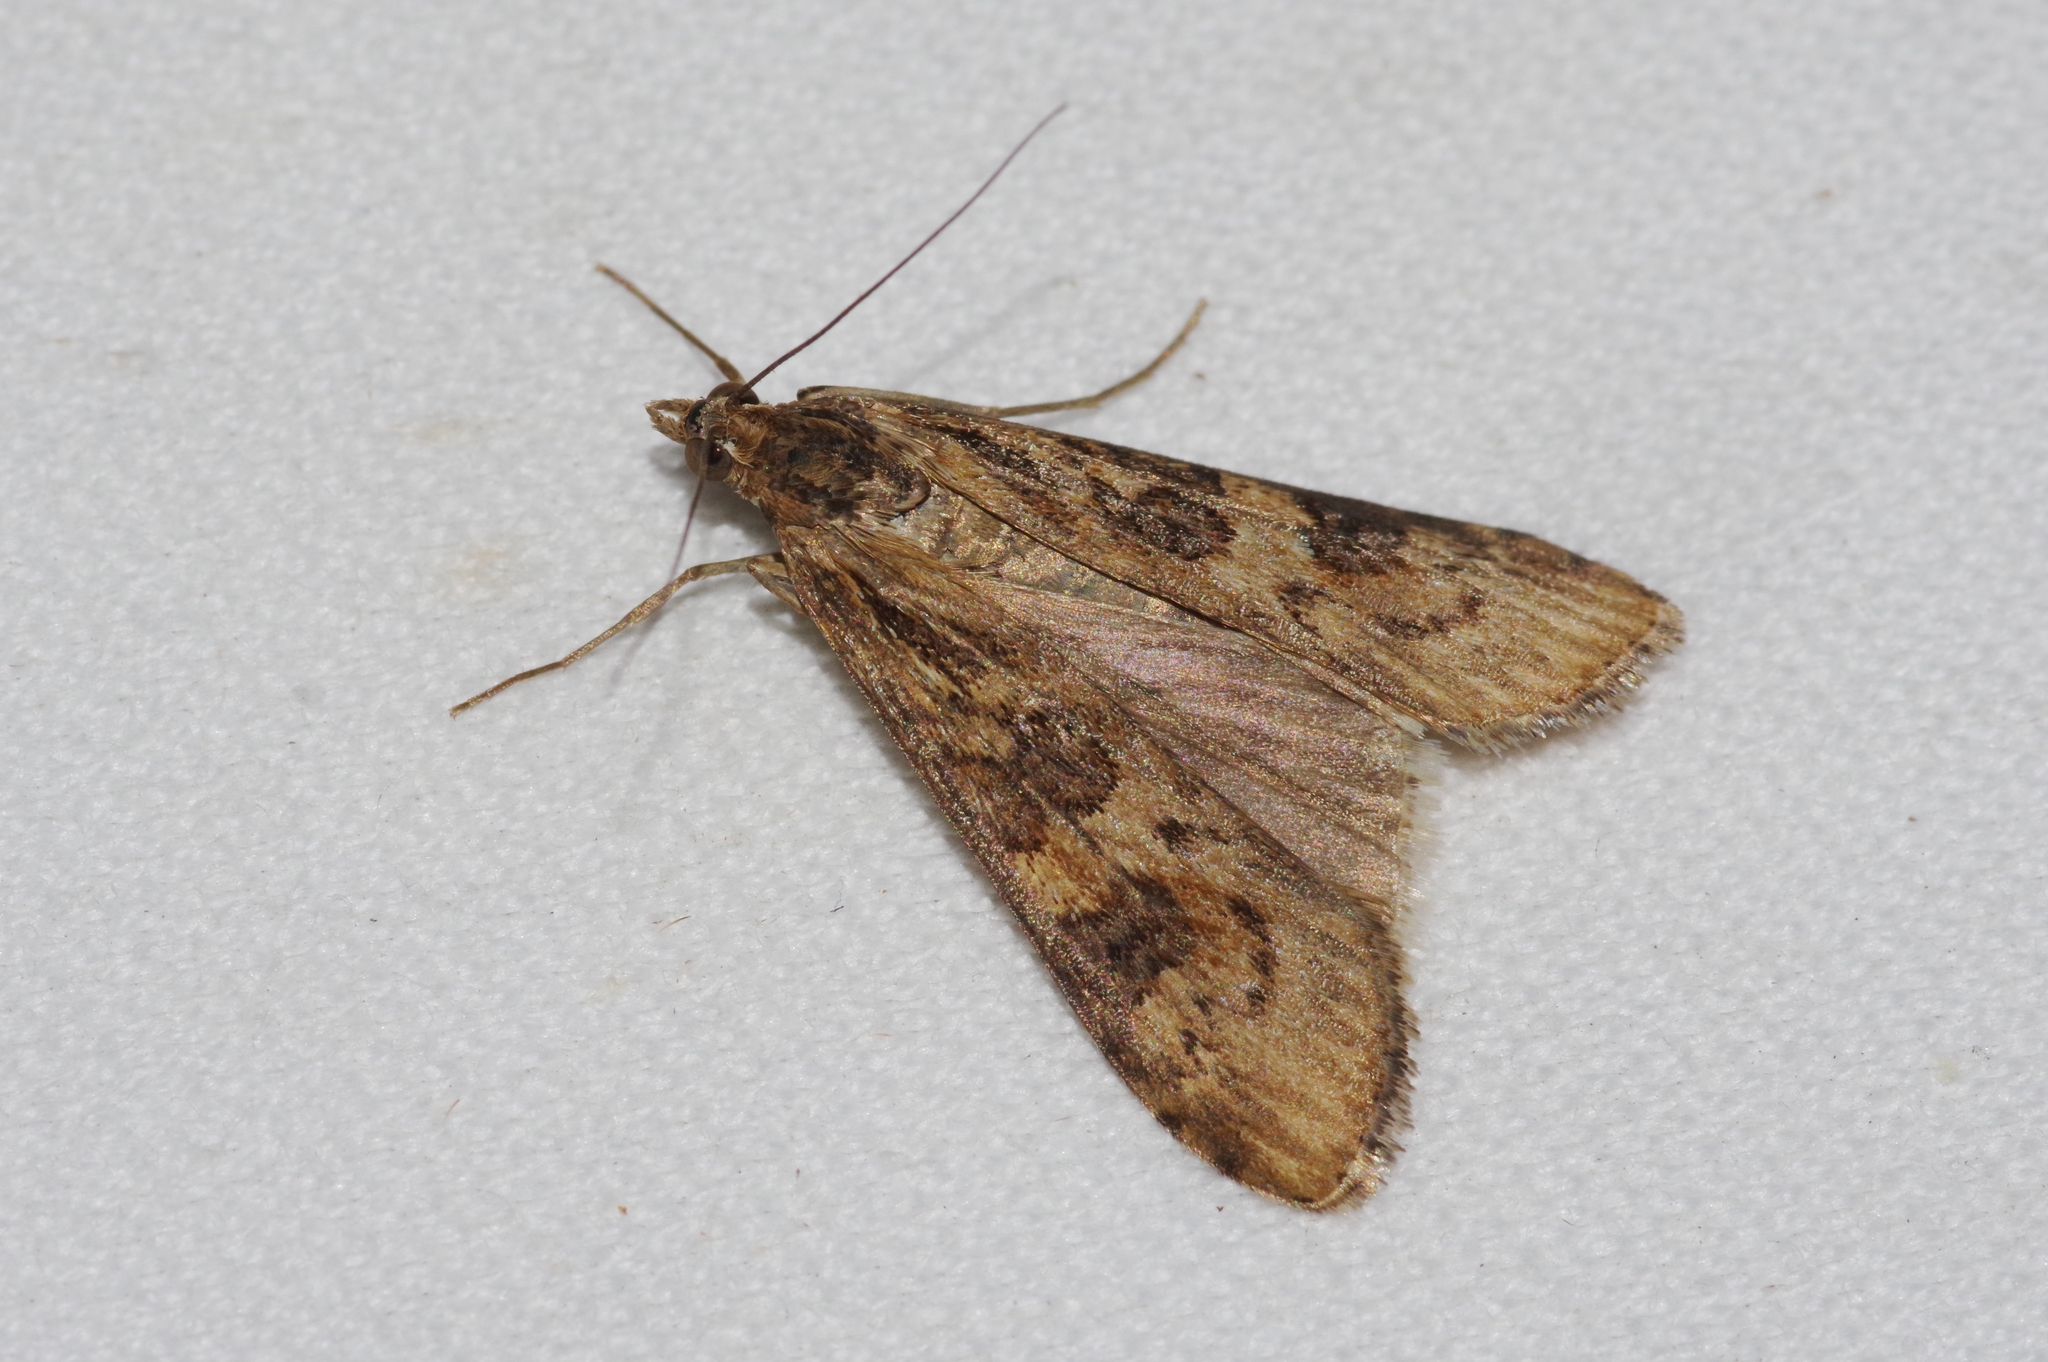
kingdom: Animalia
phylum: Arthropoda
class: Insecta
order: Lepidoptera
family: Crambidae
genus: Nomophila
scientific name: Nomophila noctuella
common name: Rush veneer
